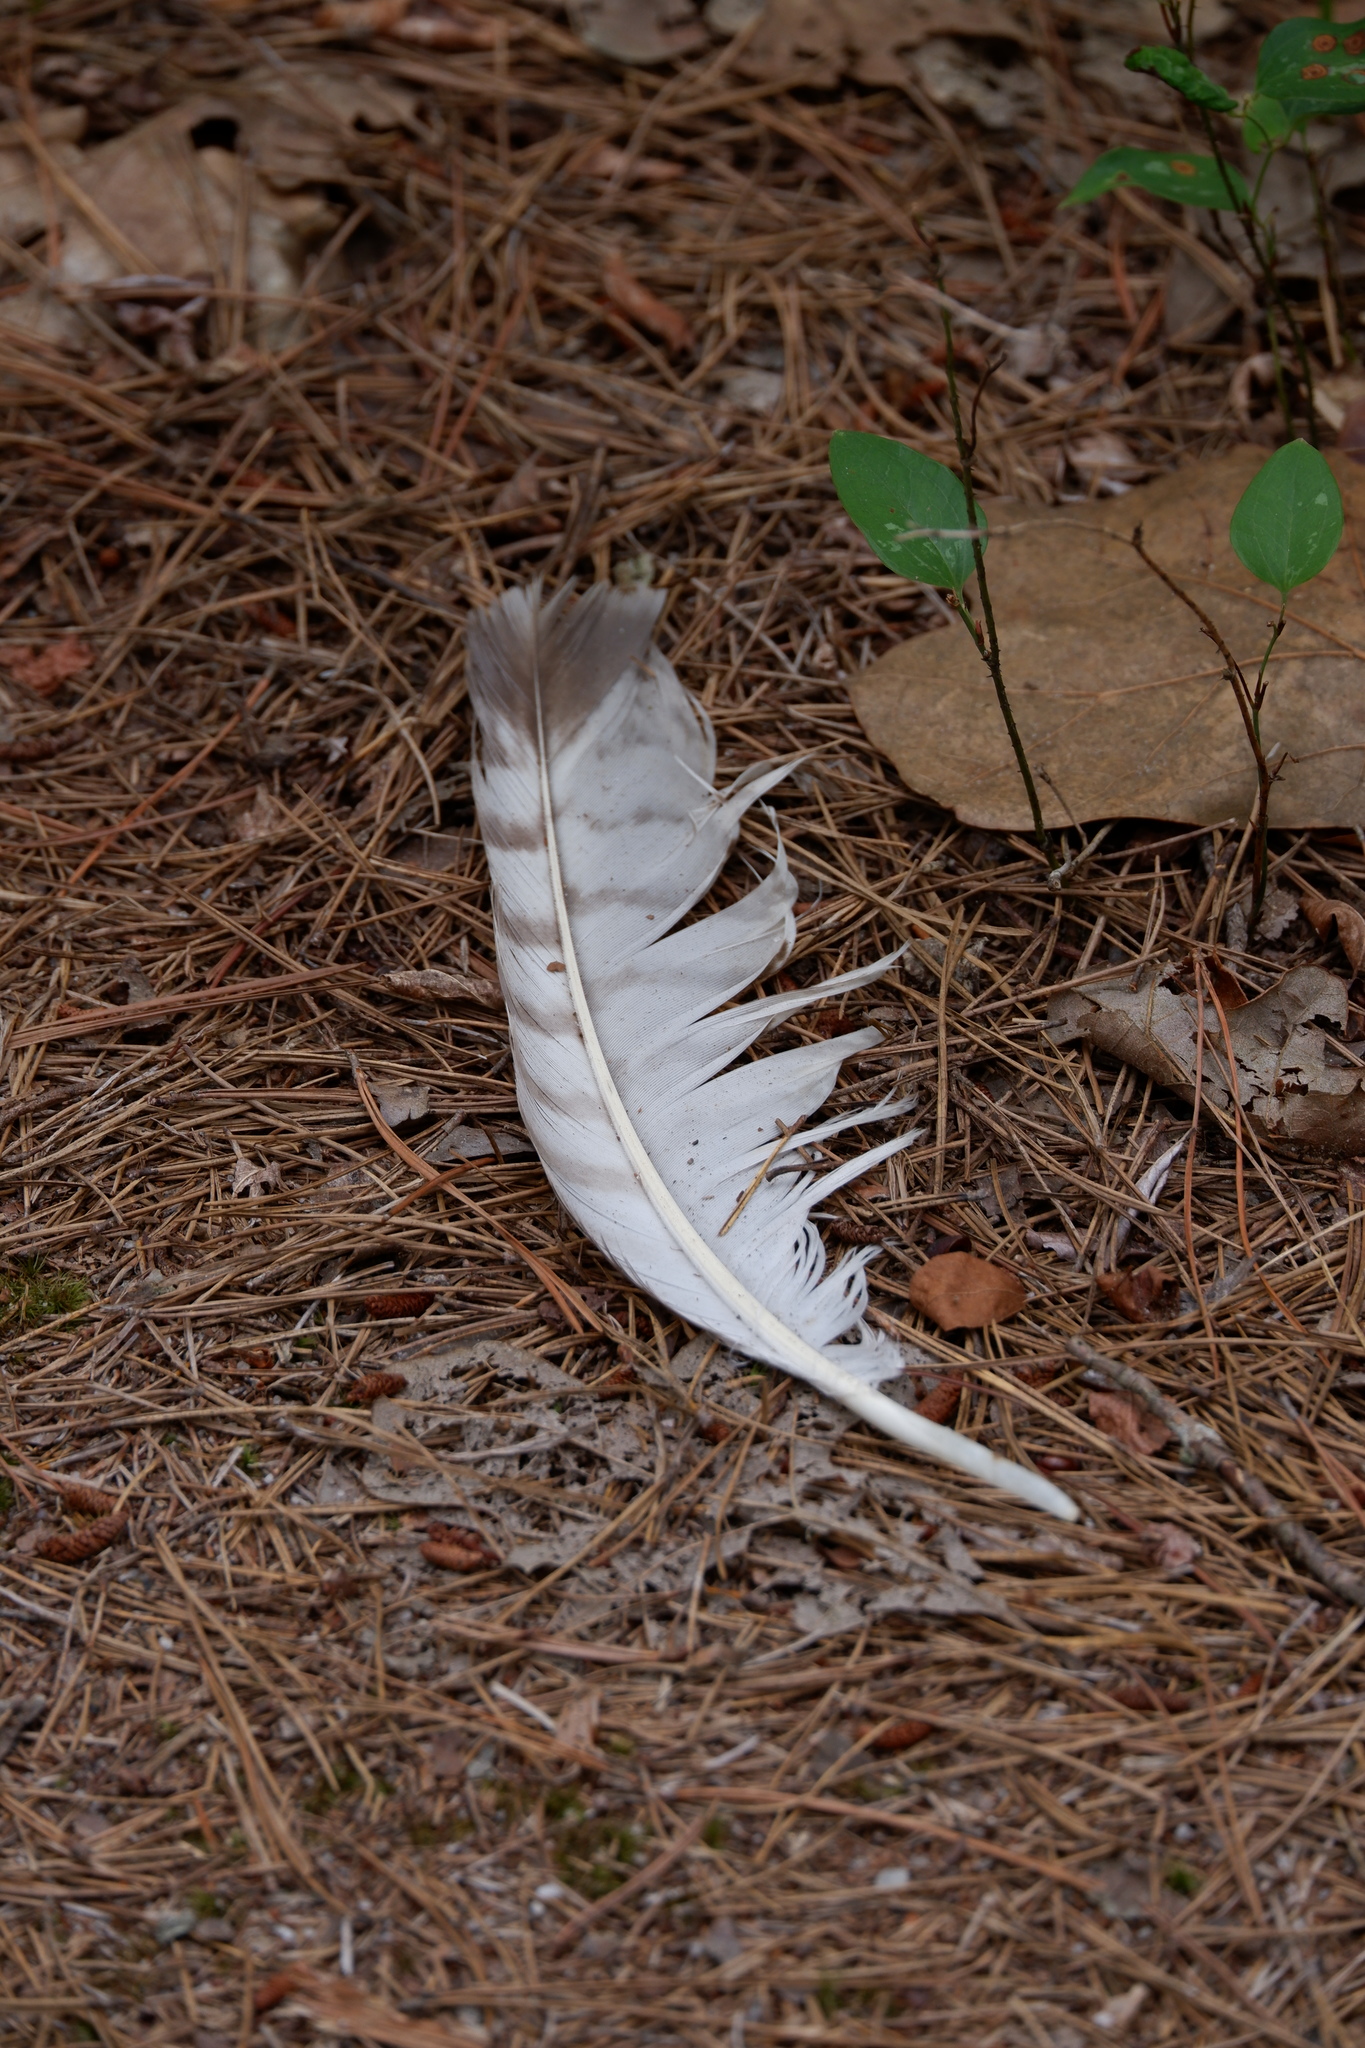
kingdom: Animalia
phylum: Chordata
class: Aves
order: Accipitriformes
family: Accipitridae
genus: Buteo
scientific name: Buteo jamaicensis
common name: Red-tailed hawk
